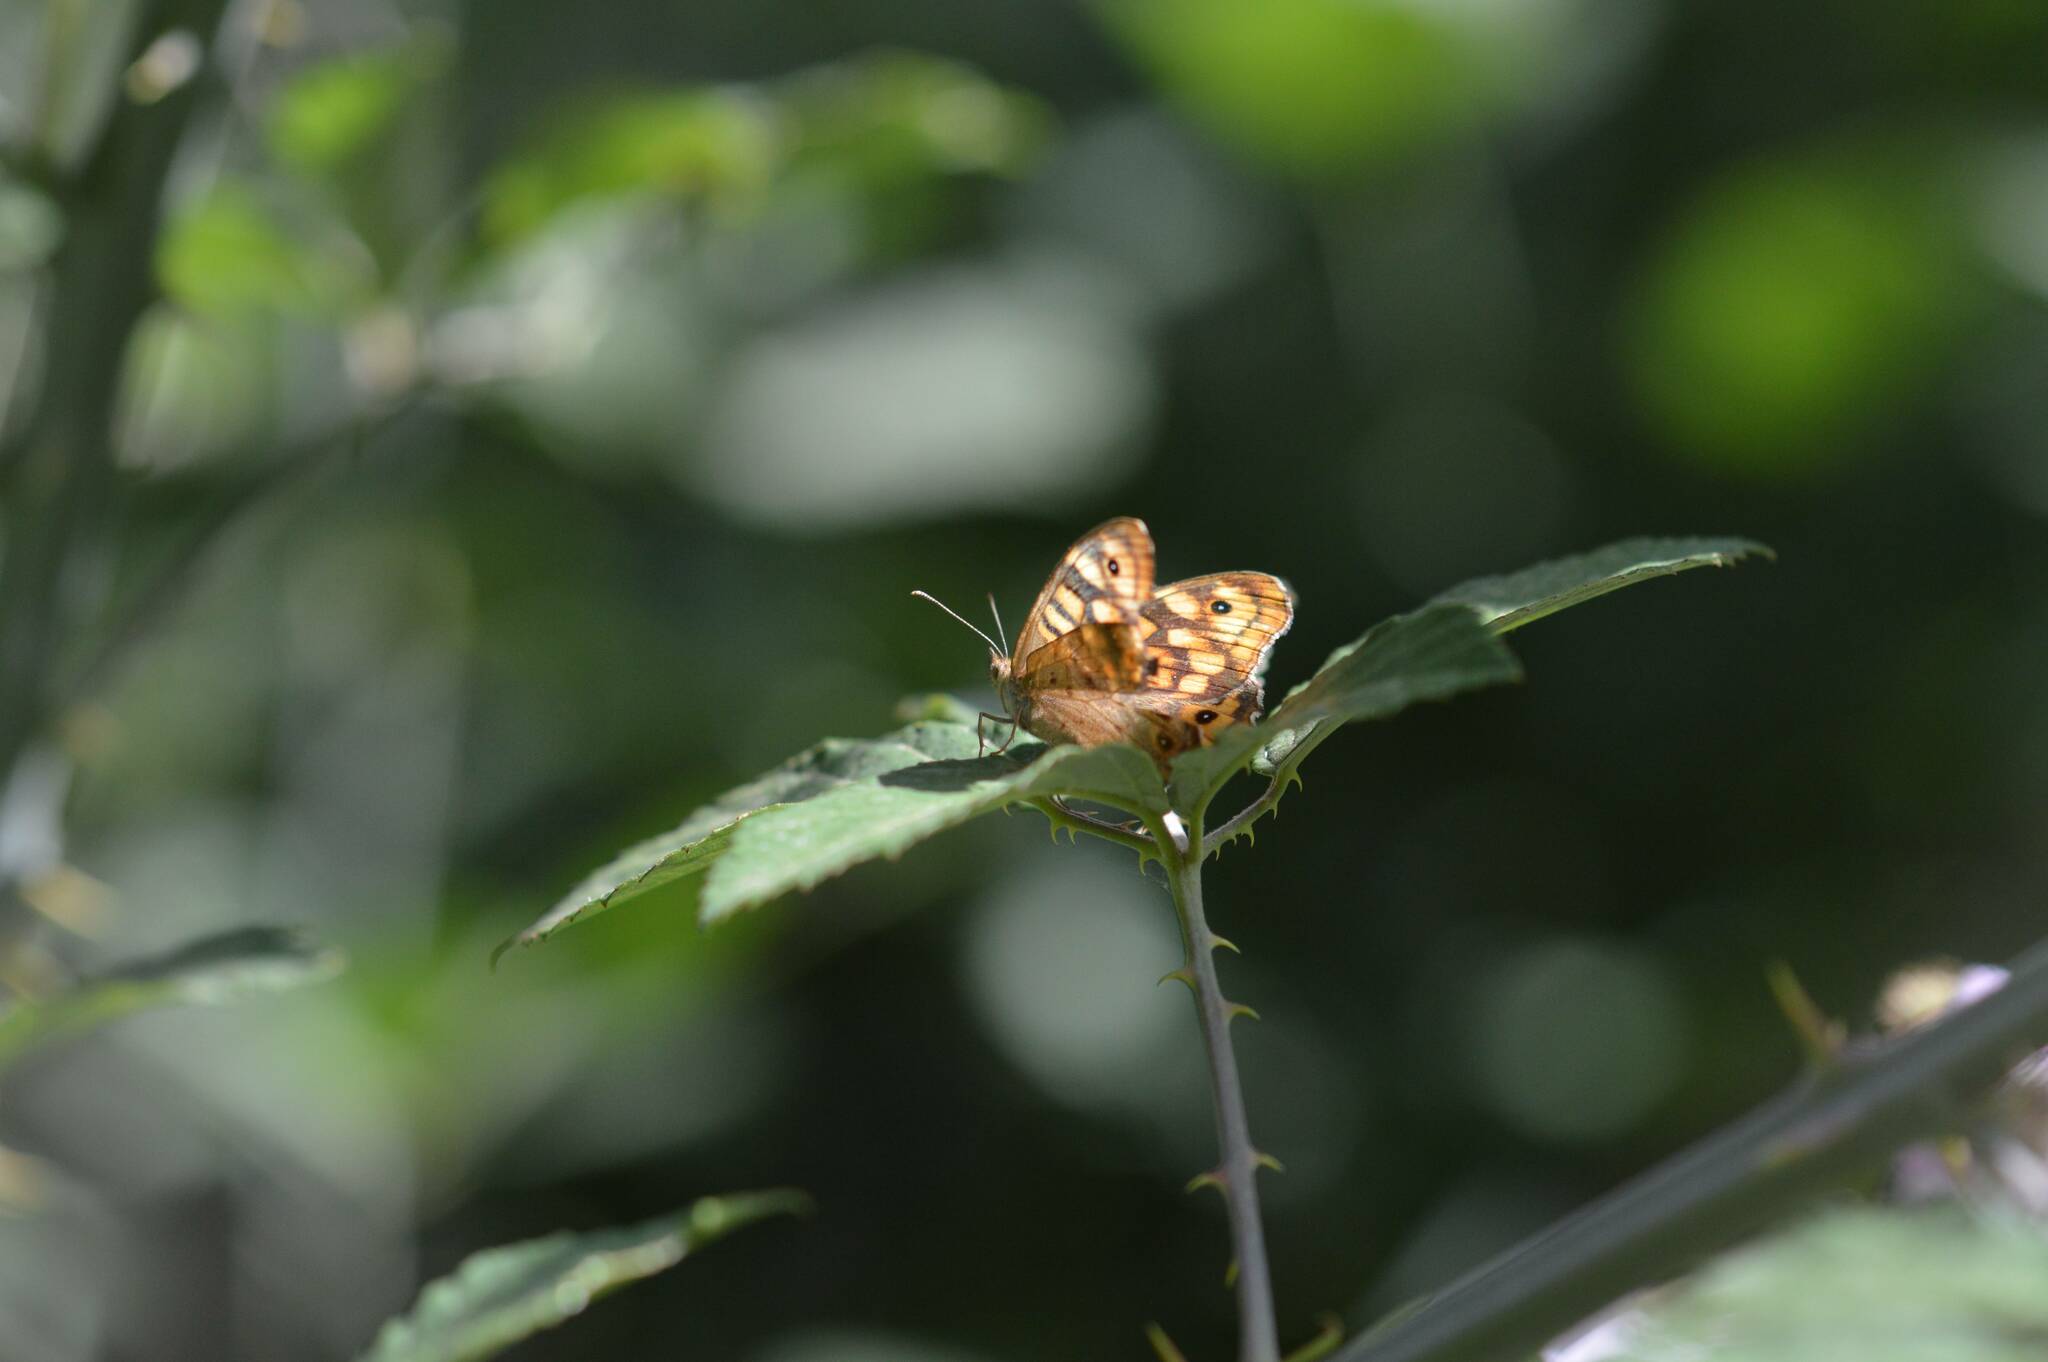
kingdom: Animalia
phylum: Arthropoda
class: Insecta
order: Lepidoptera
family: Nymphalidae
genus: Pararge
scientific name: Pararge aegeria
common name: Speckled wood
